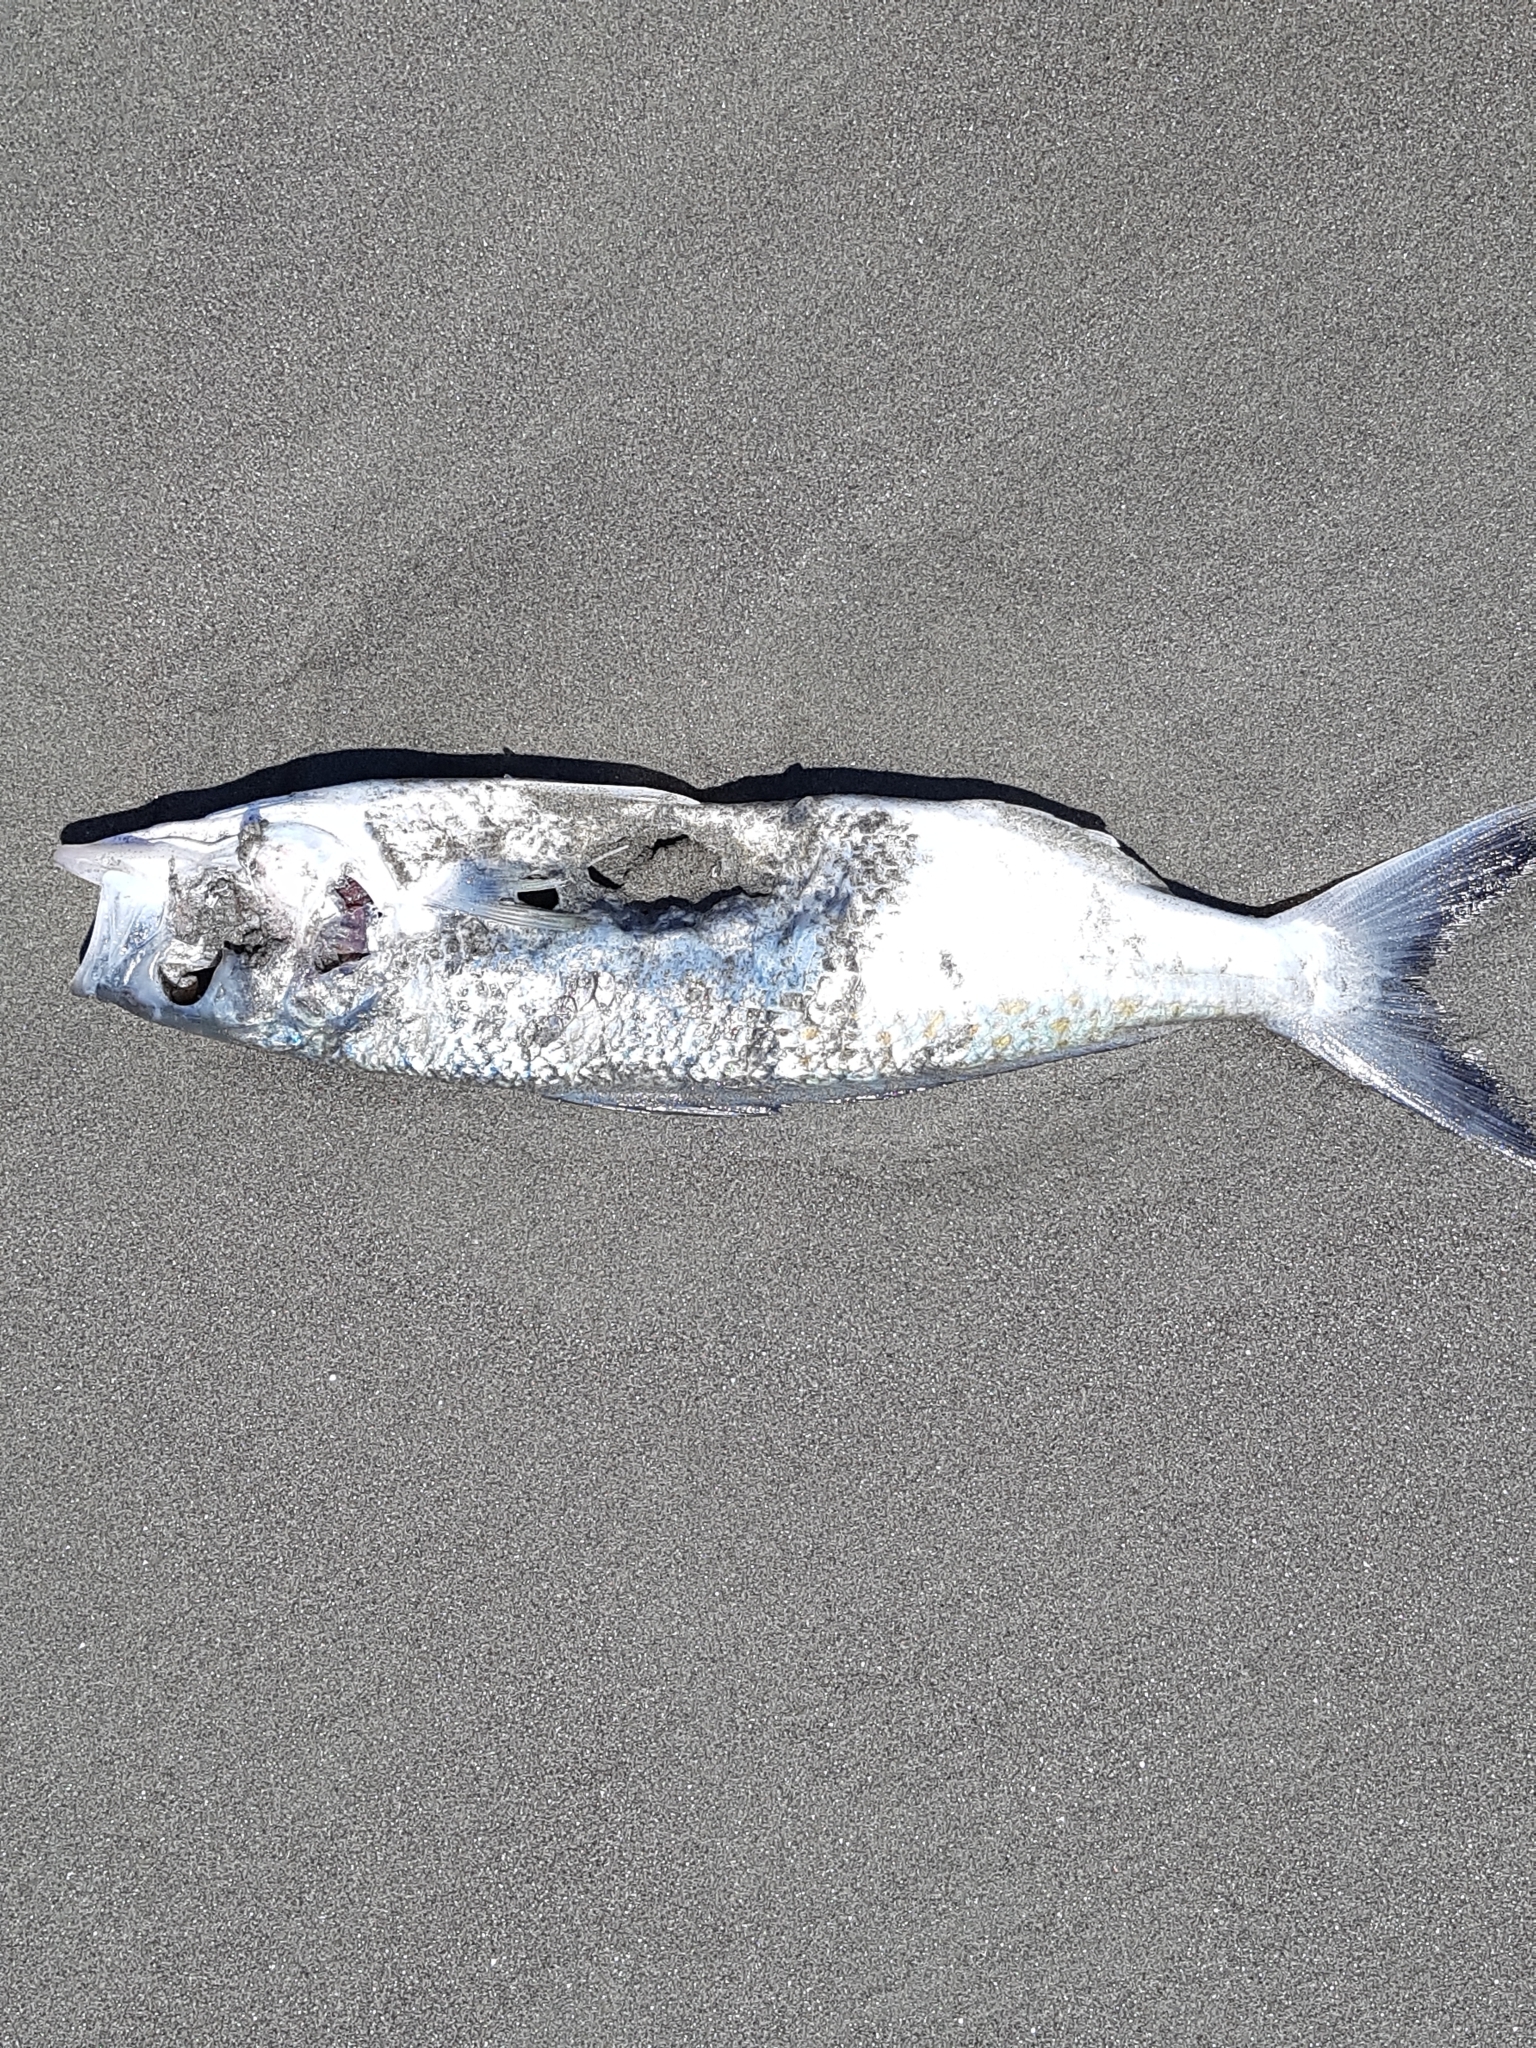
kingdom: Animalia
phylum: Chordata
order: Perciformes
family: Arripidae
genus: Arripis
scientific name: Arripis trutta
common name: Kahawai
